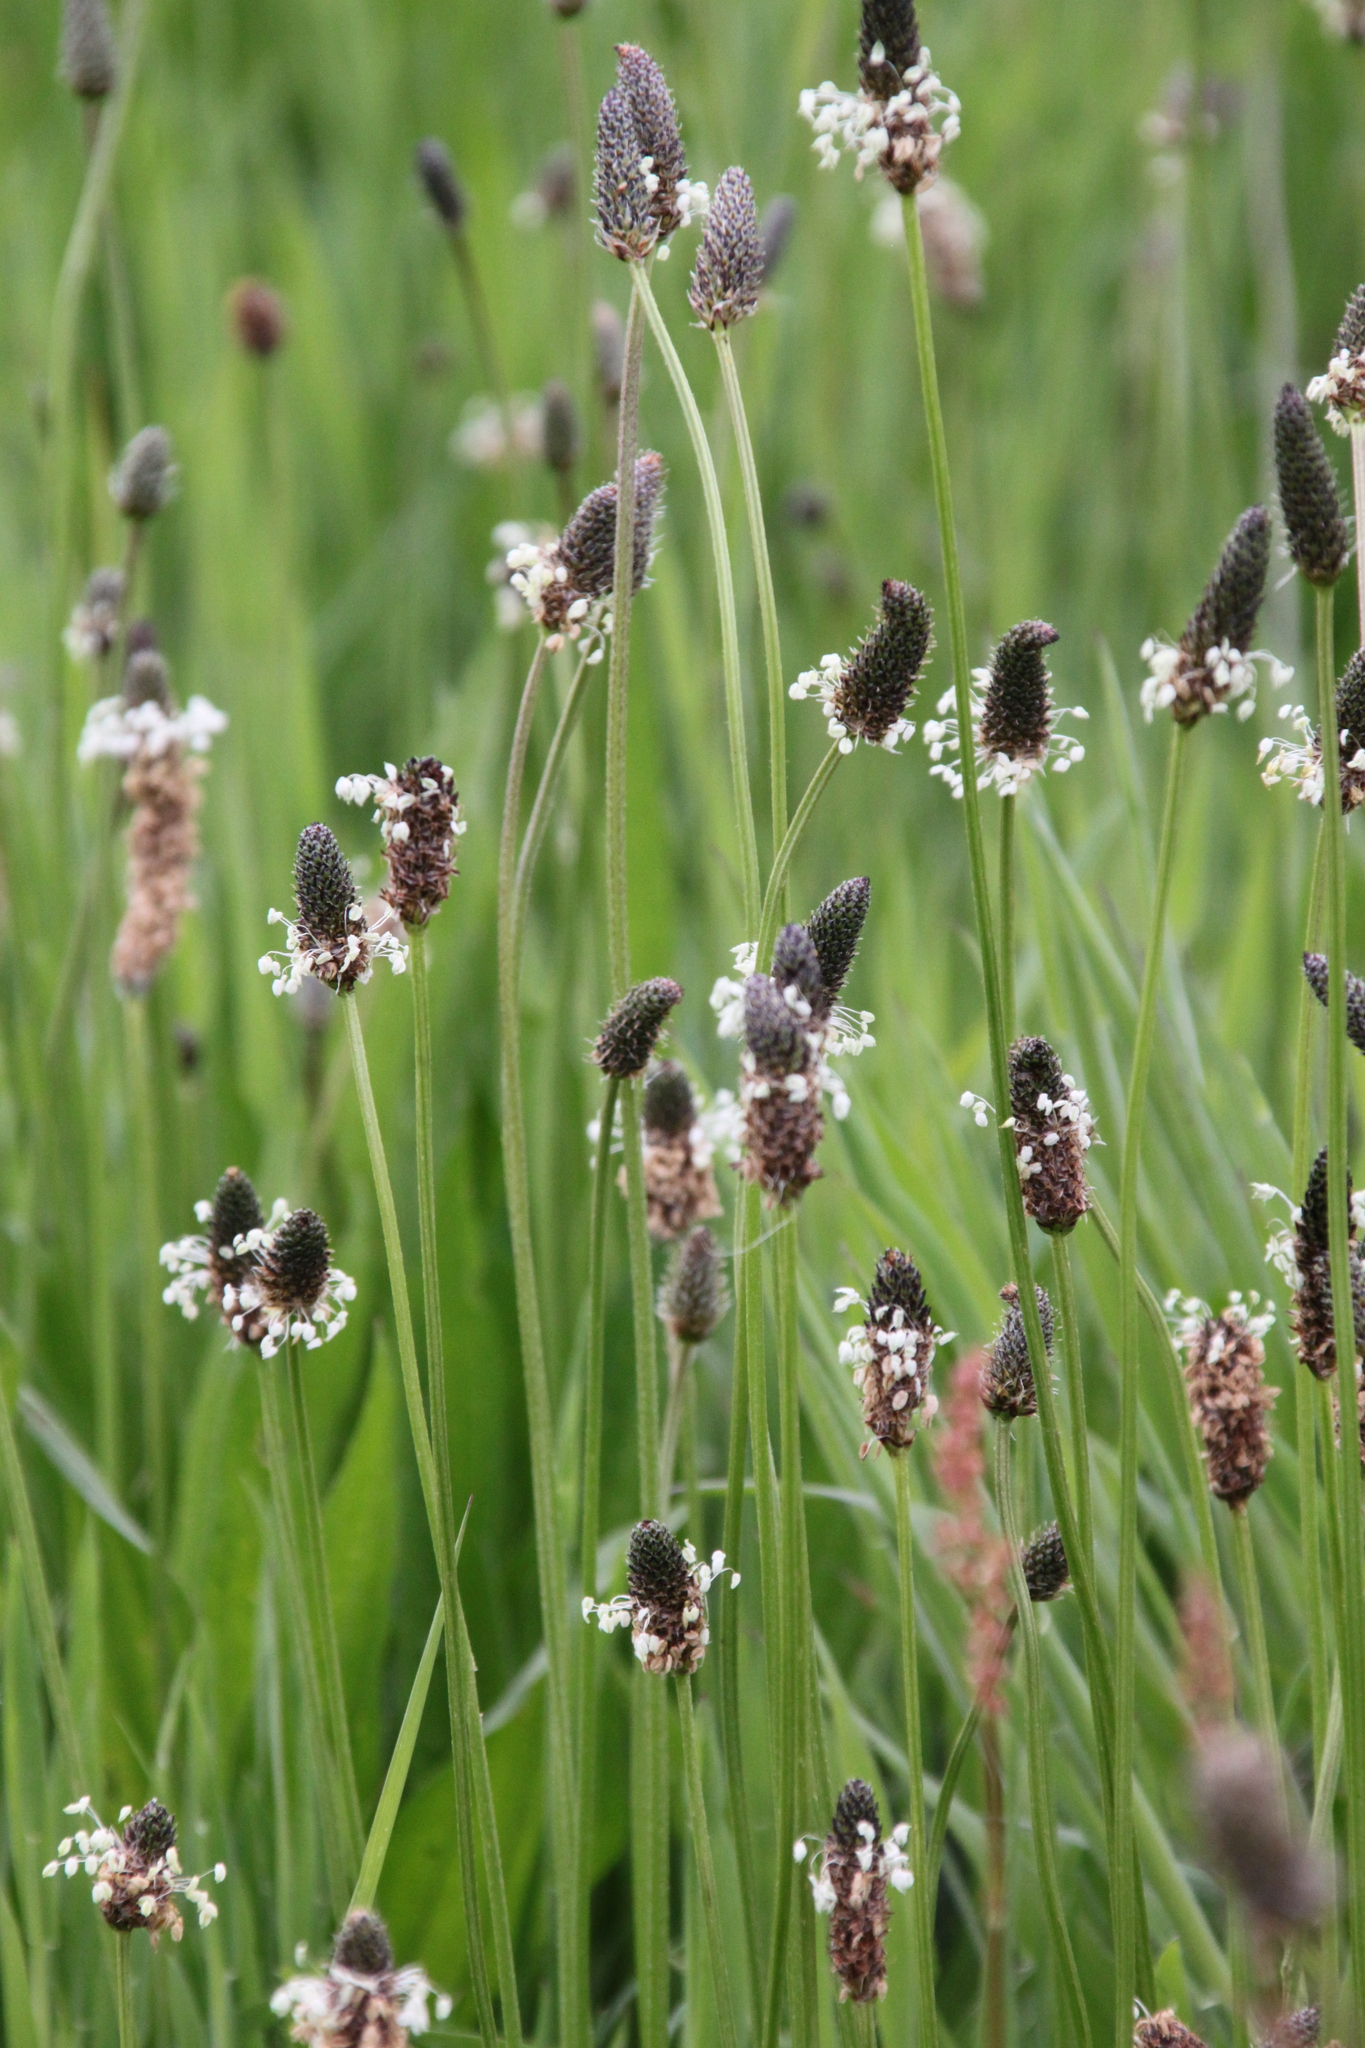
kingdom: Plantae
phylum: Tracheophyta
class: Magnoliopsida
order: Lamiales
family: Plantaginaceae
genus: Plantago
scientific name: Plantago lanceolata
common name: Ribwort plantain
